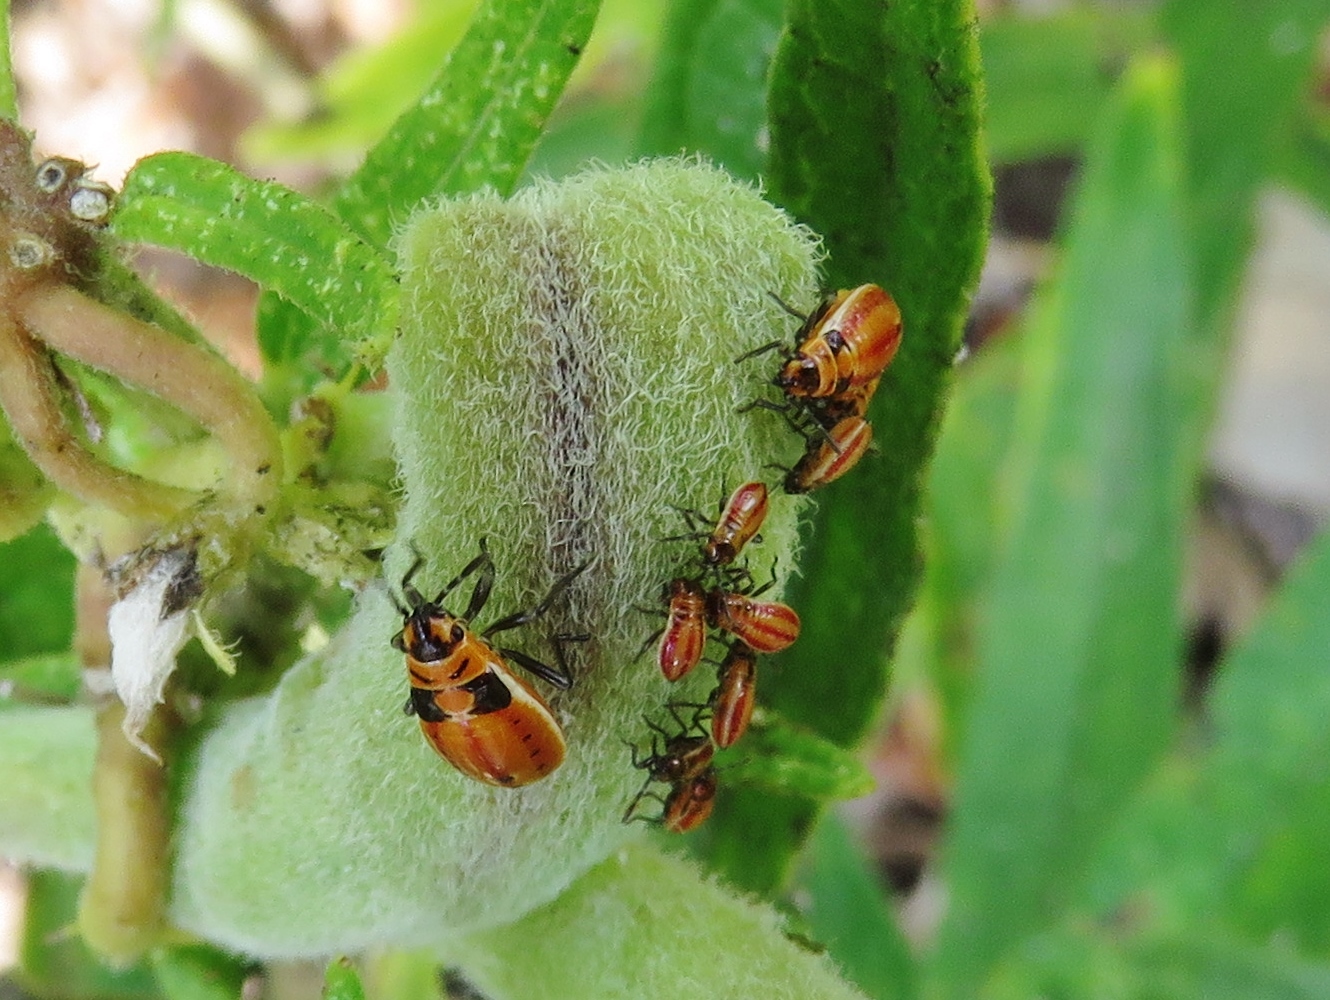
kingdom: Animalia
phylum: Arthropoda
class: Insecta
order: Hemiptera
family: Lygaeidae
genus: Lygaeus
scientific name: Lygaeus kalmii
